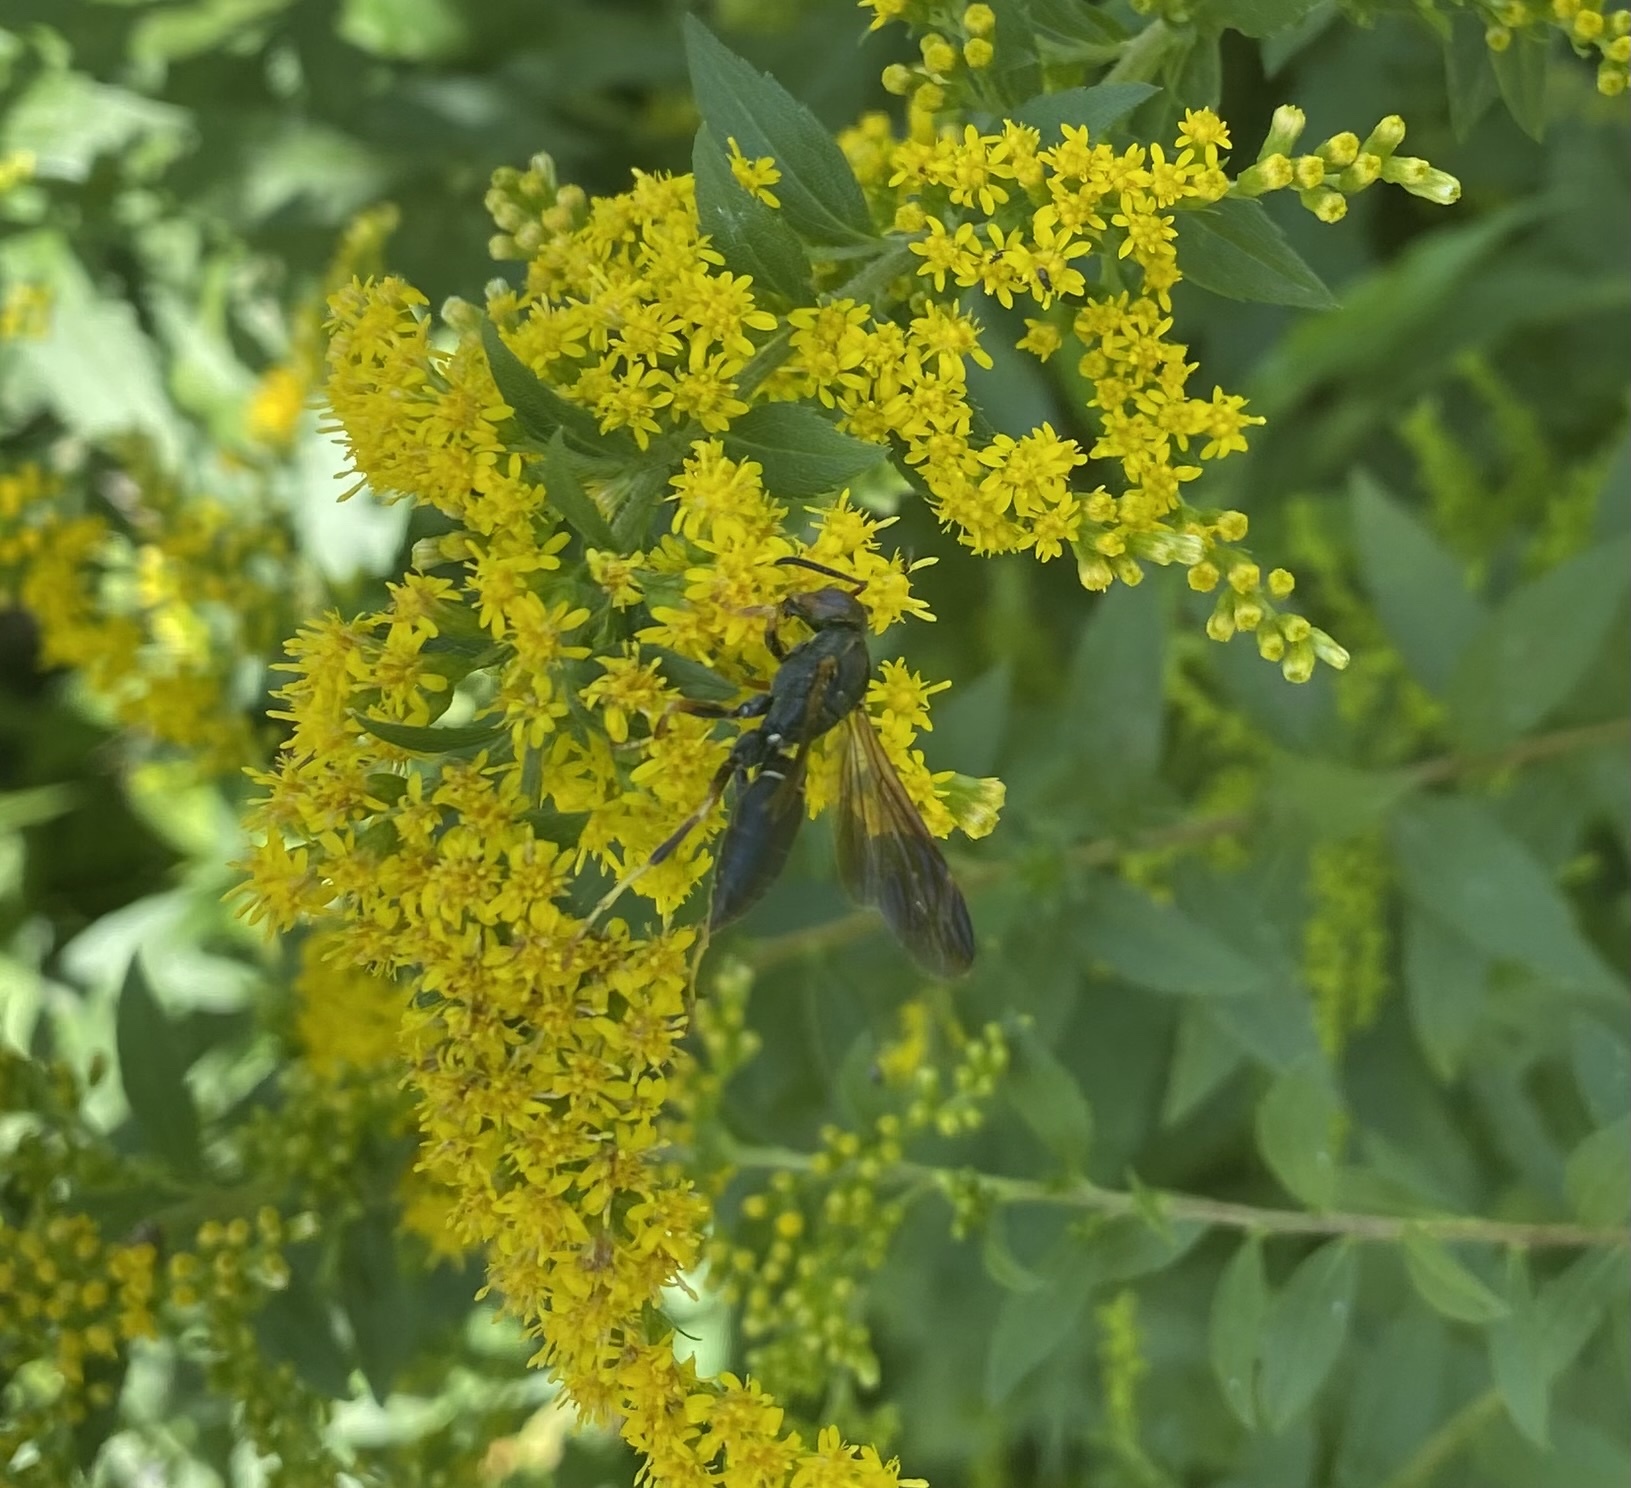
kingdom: Animalia
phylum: Arthropoda
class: Insecta
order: Hymenoptera
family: Vespidae
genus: Fuscopolistes
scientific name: Fuscopolistes
